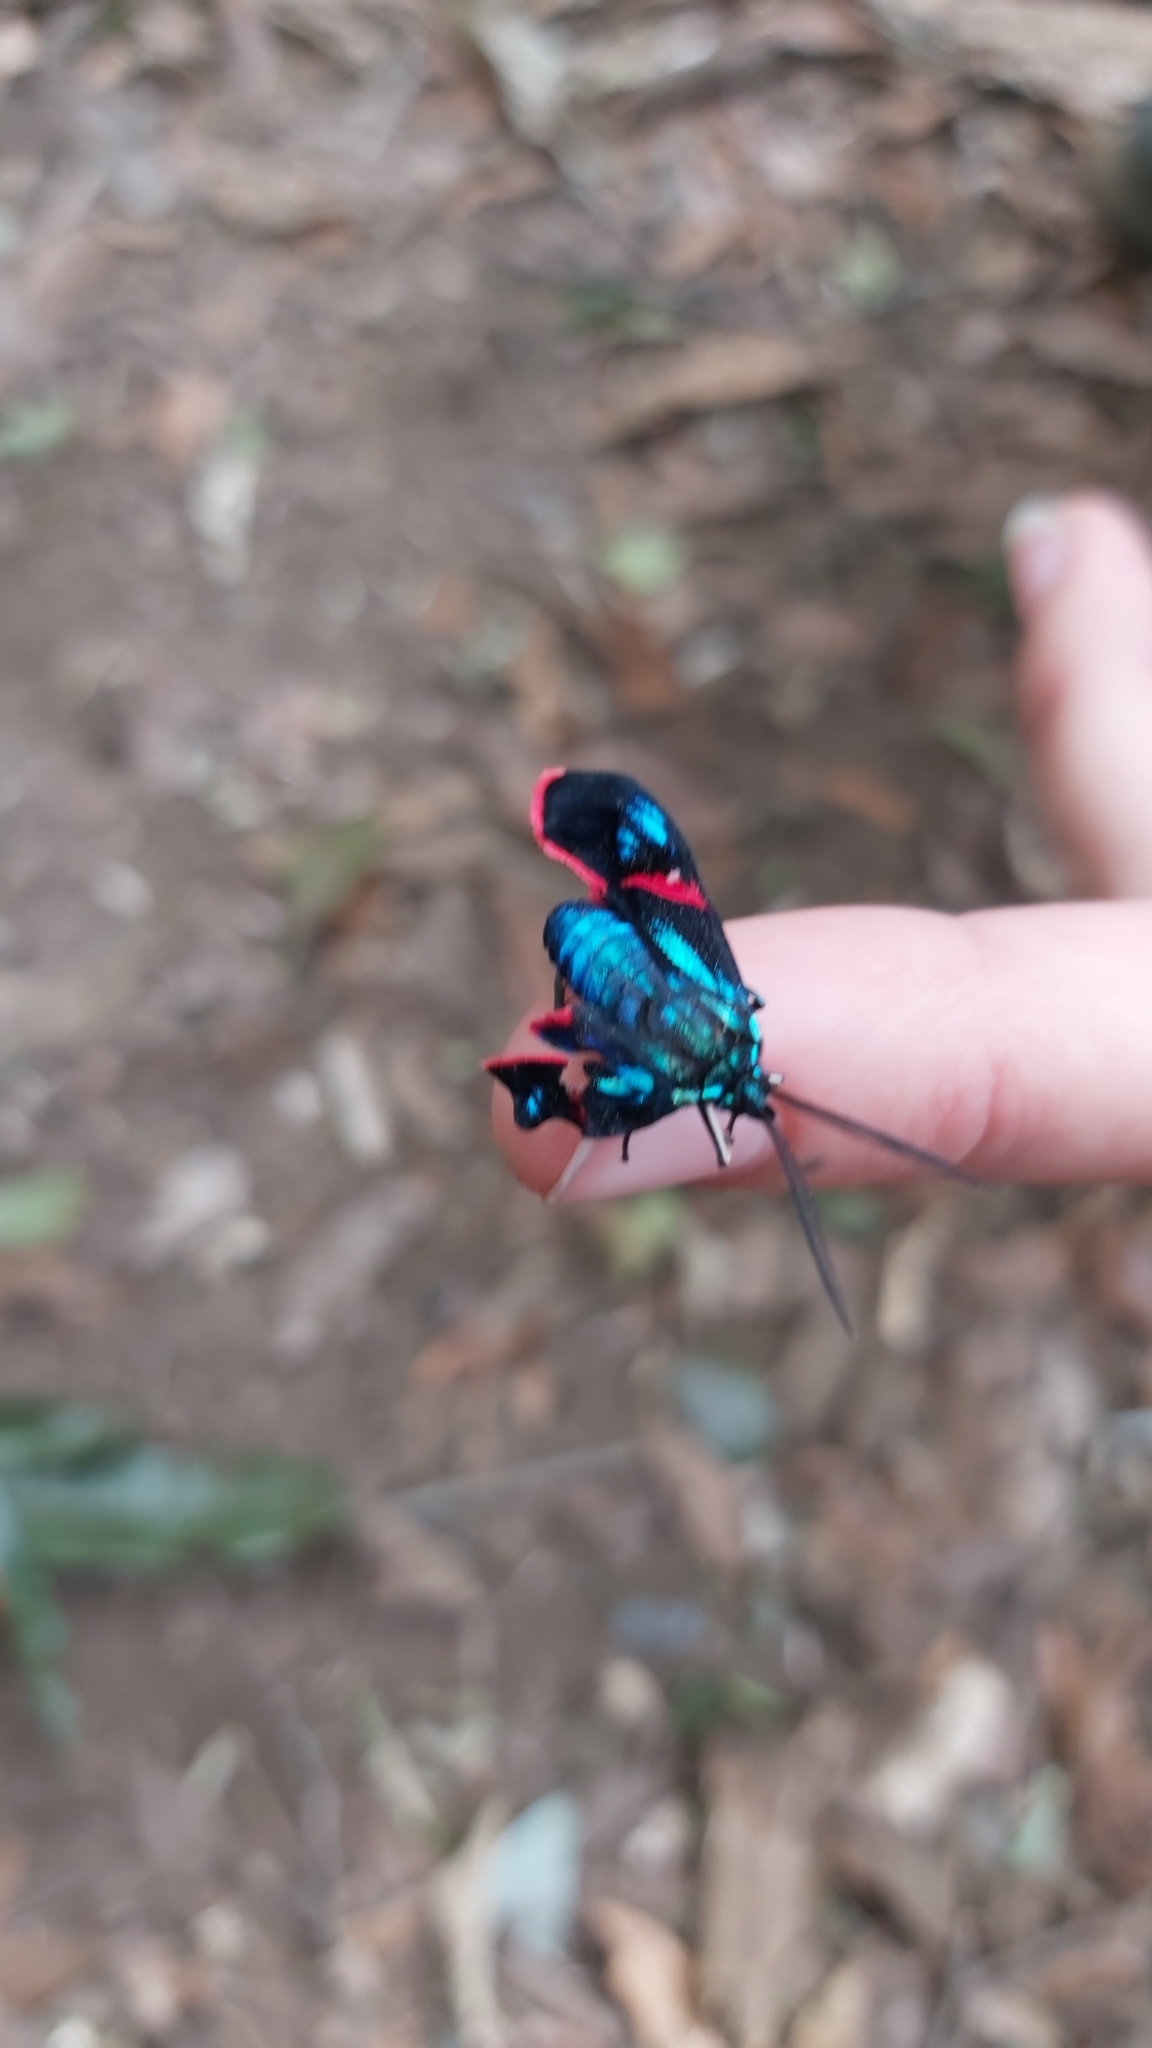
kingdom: Animalia
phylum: Arthropoda
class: Insecta
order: Lepidoptera
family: Erebidae
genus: Cyanopepla
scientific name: Cyanopepla scintillans
